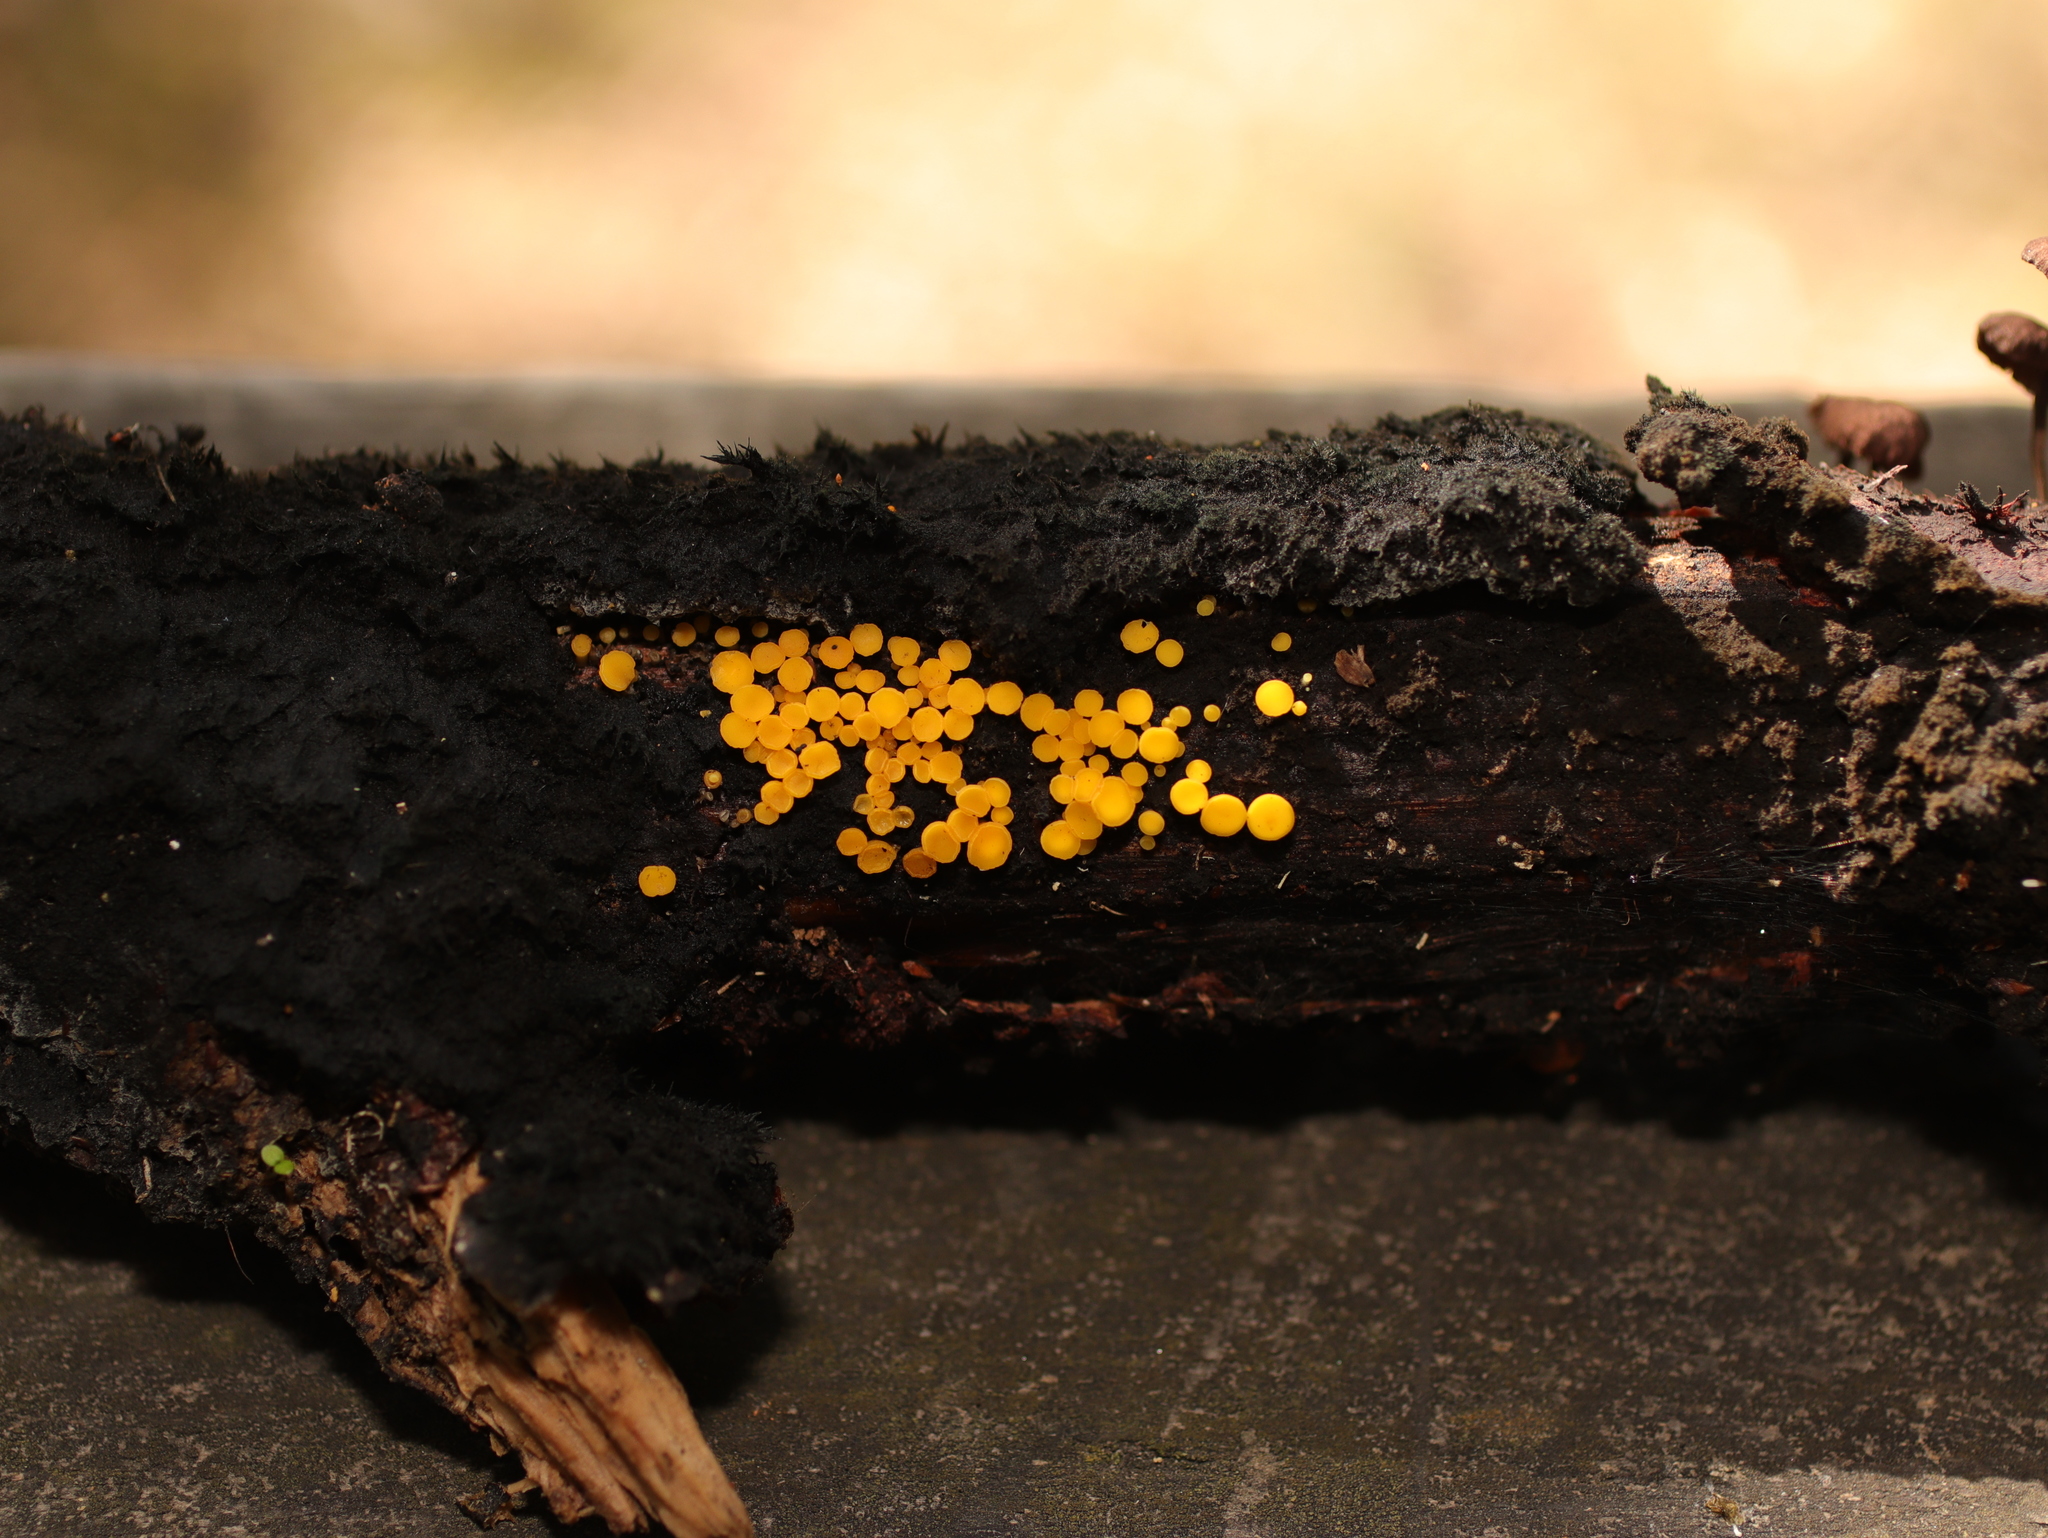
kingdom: Fungi
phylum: Ascomycota
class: Leotiomycetes
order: Helotiales
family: Pezizellaceae
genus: Calycina
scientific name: Calycina citrina
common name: Yellow fairy cups
